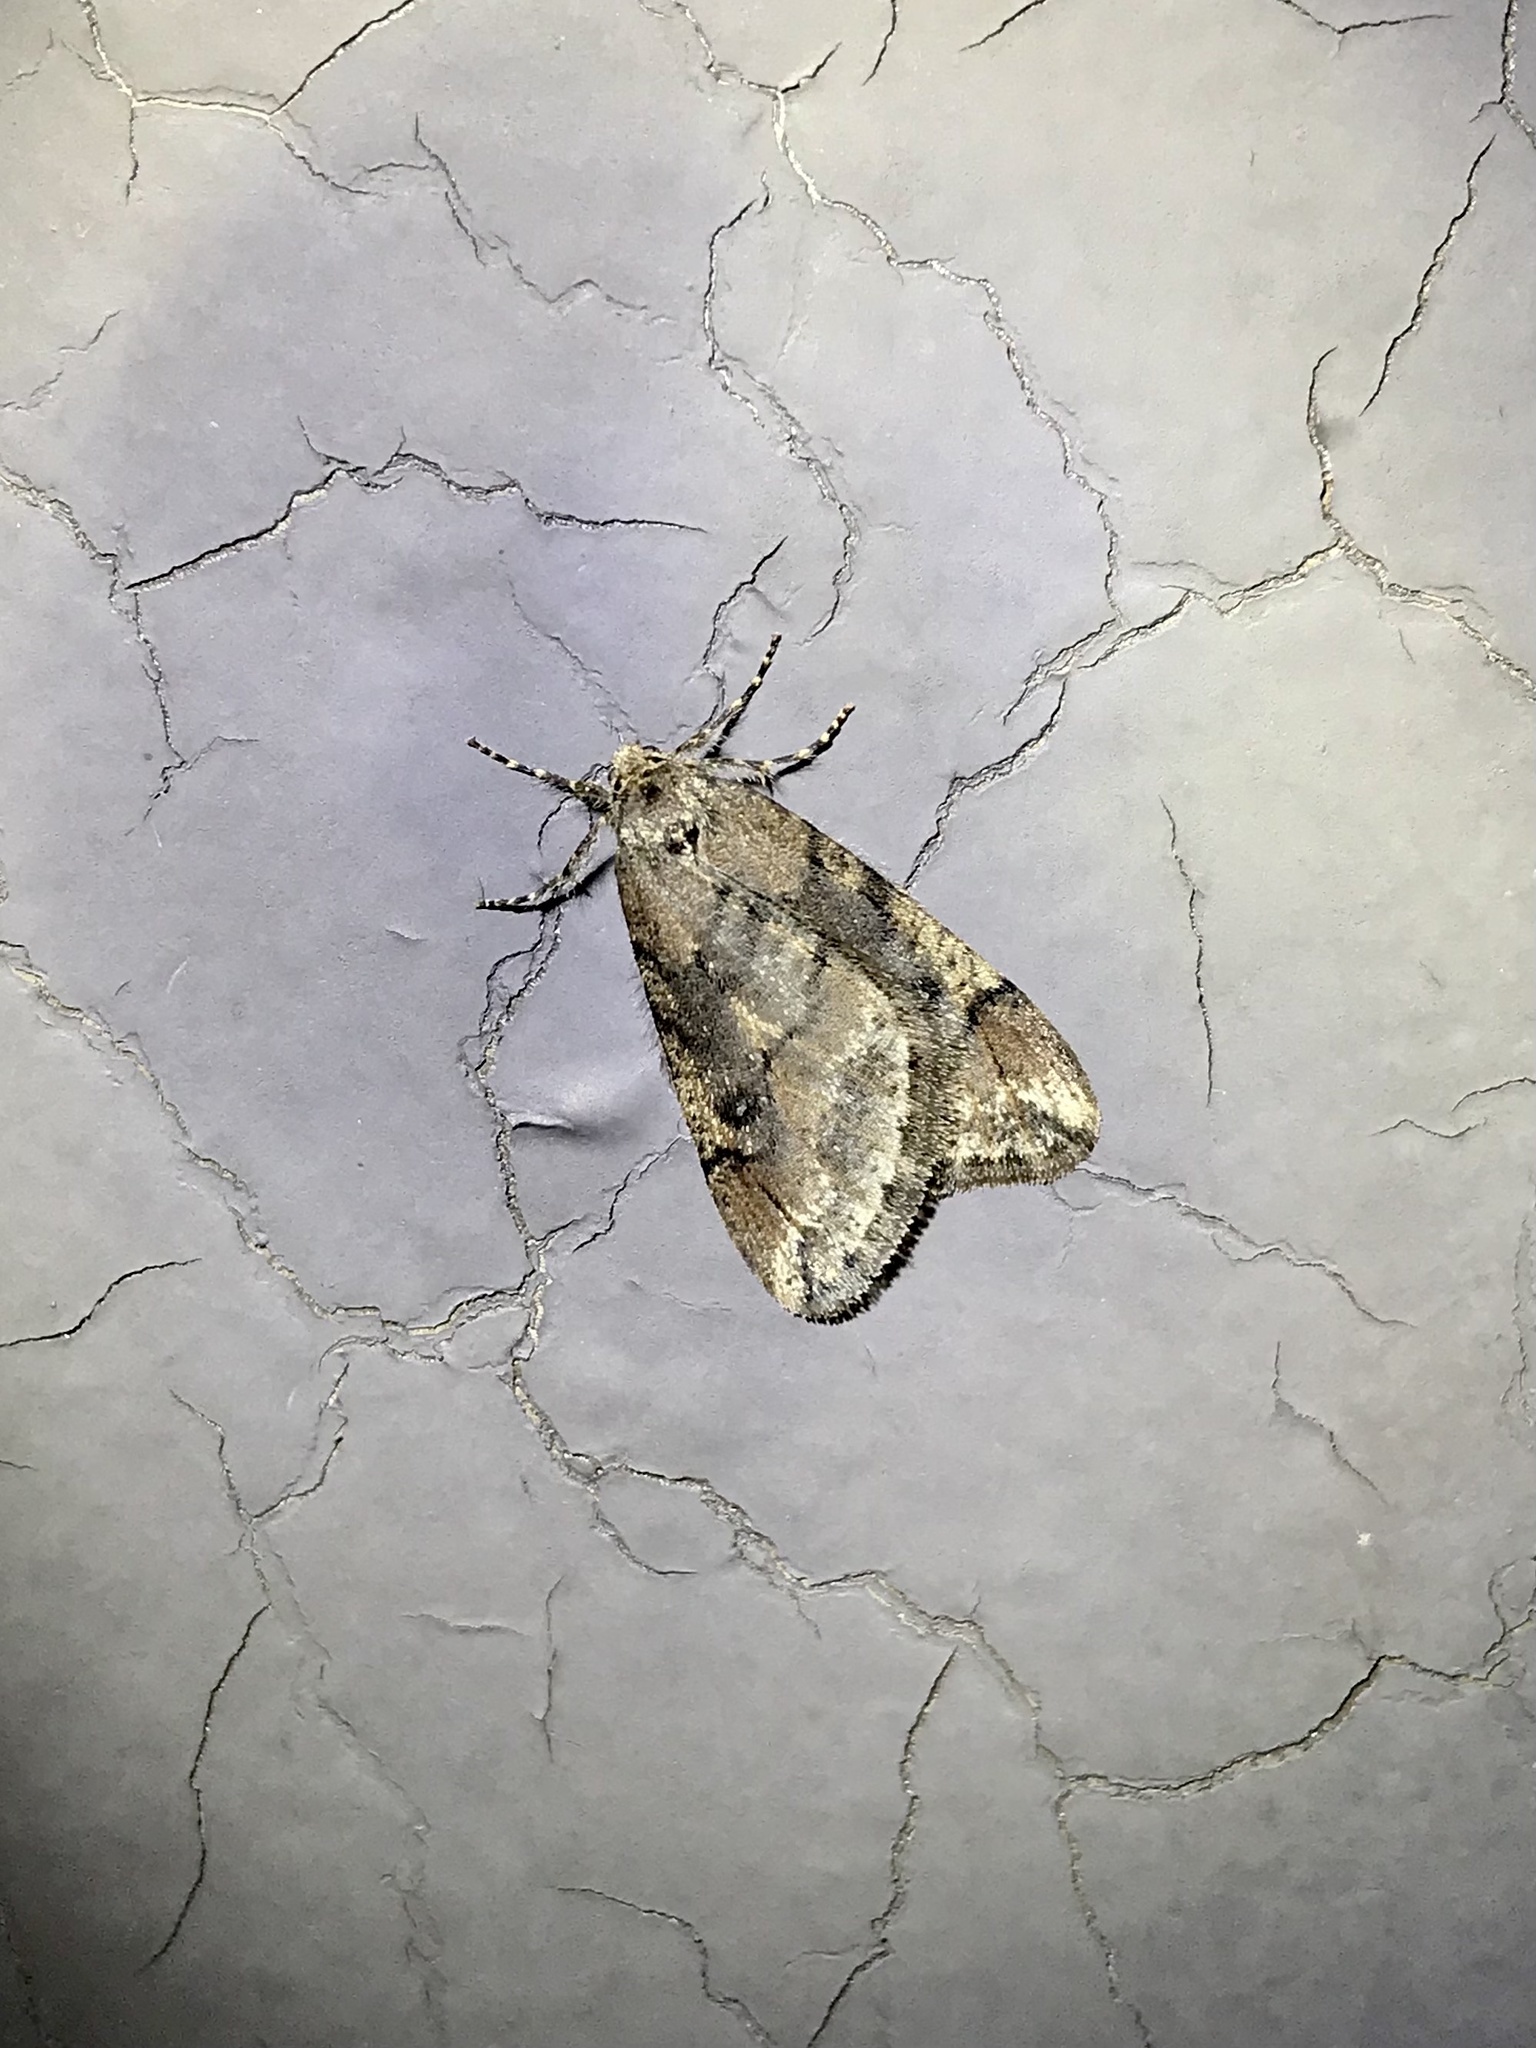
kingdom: Animalia
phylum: Arthropoda
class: Insecta
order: Lepidoptera
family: Geometridae
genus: Paleacrita
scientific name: Paleacrita merriccata
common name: White-spotted canker worm
